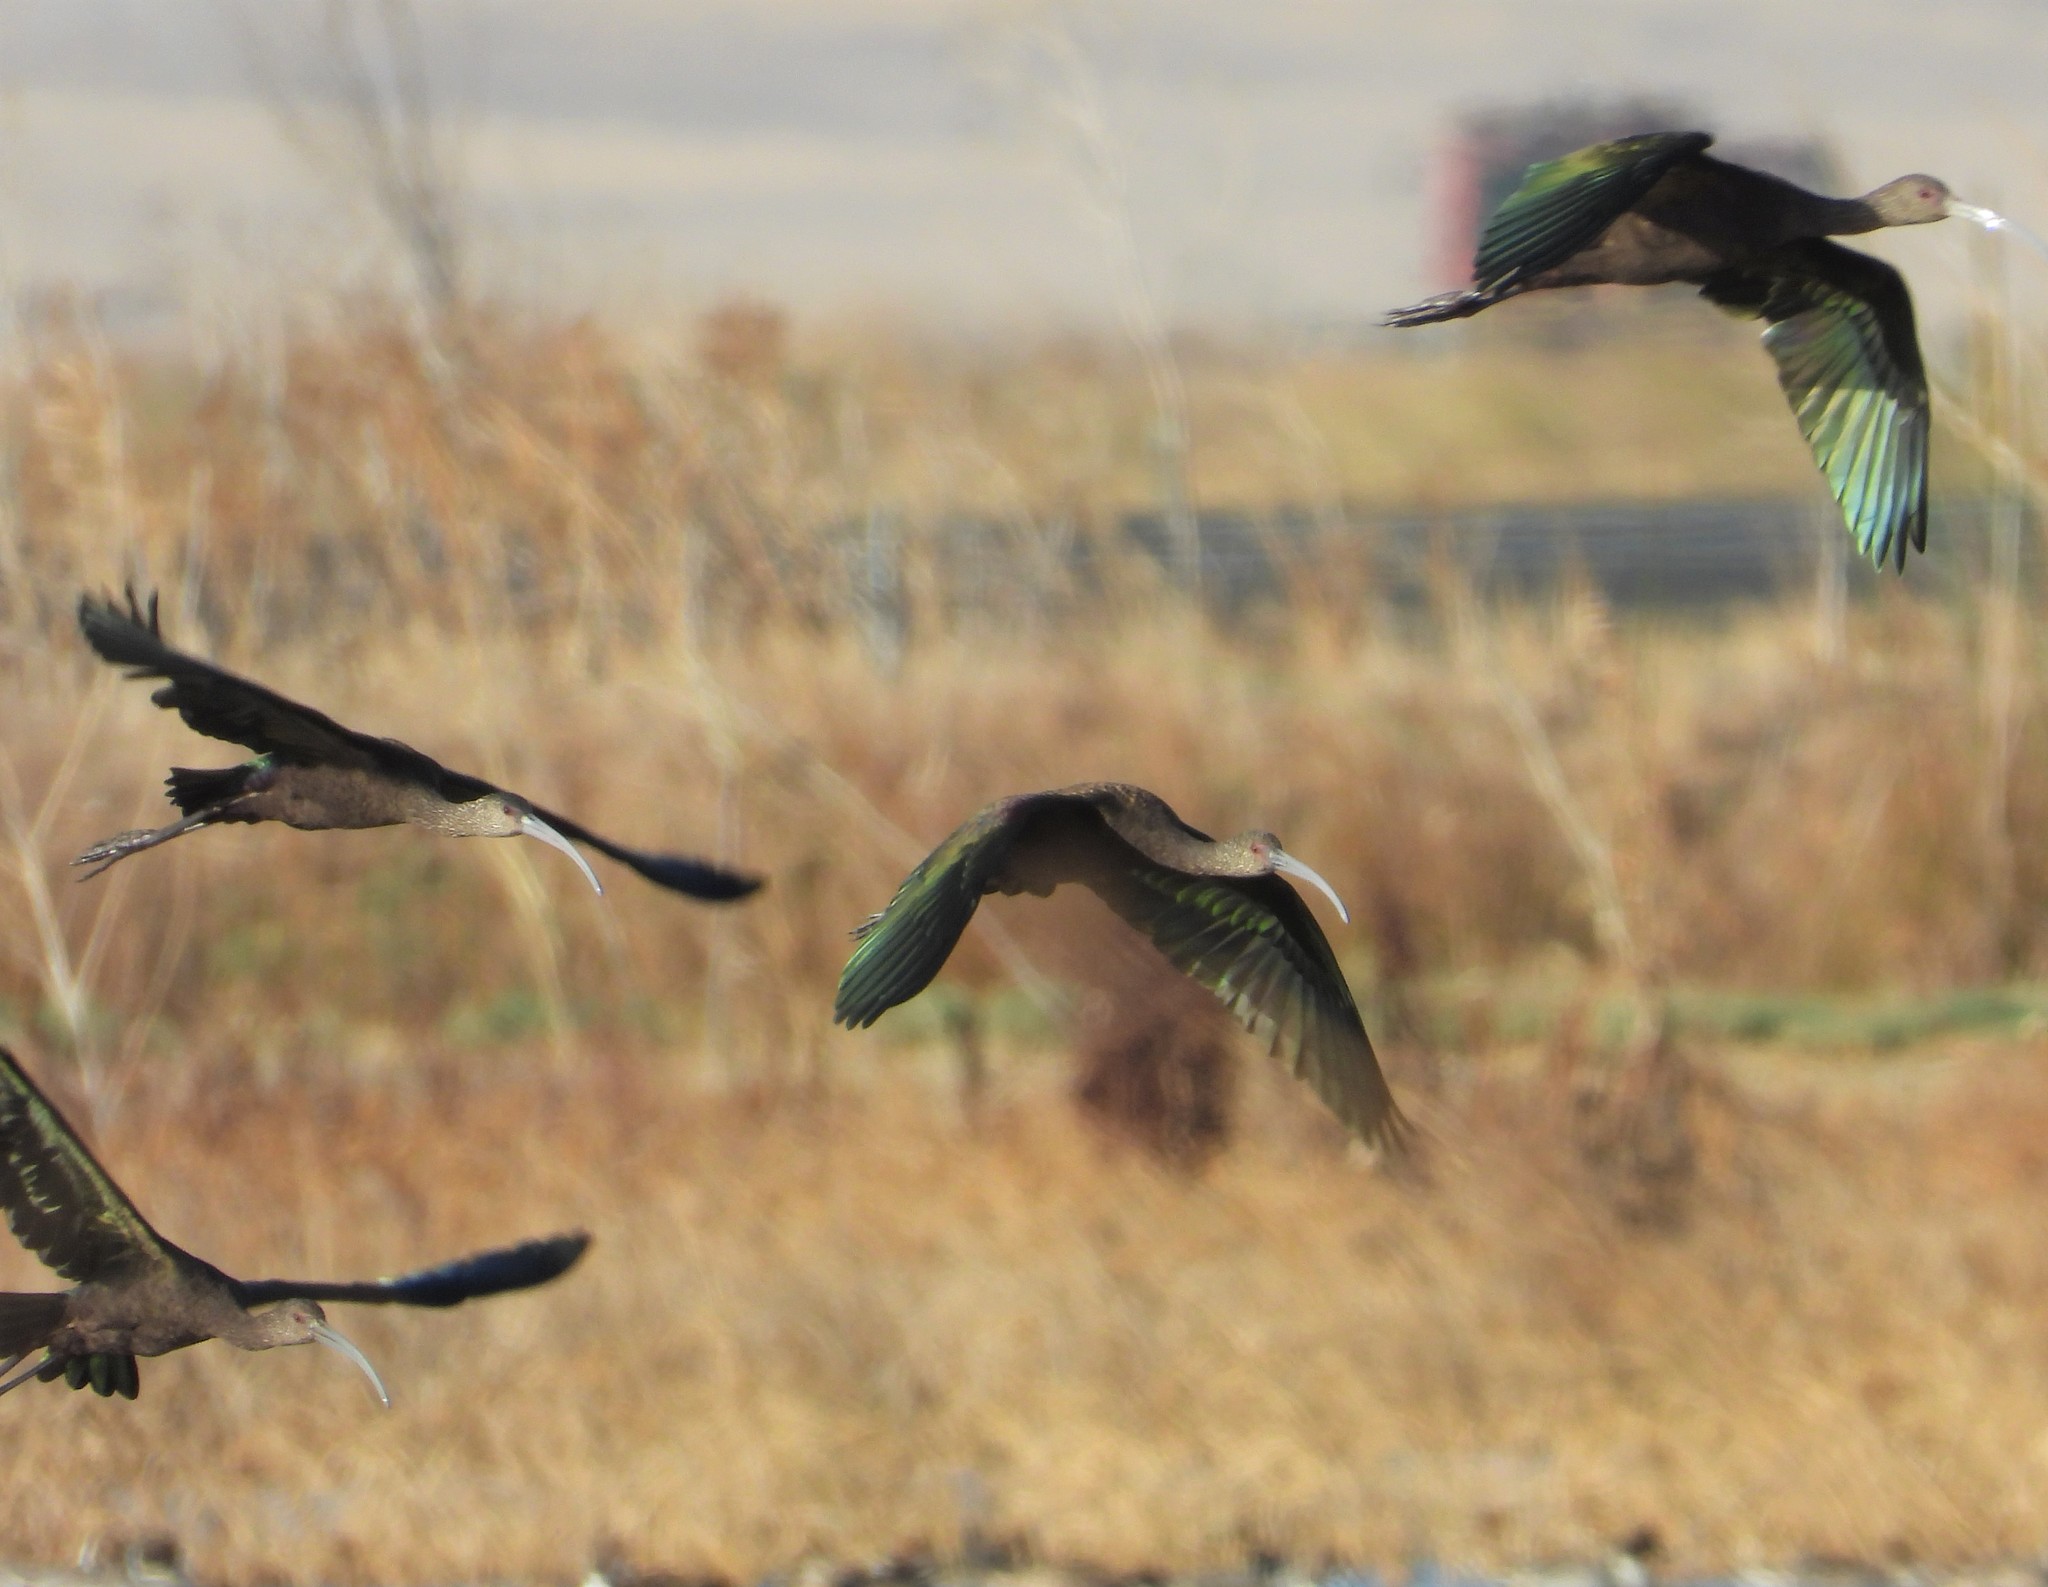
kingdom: Animalia
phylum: Chordata
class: Aves
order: Pelecaniformes
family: Threskiornithidae
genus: Plegadis
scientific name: Plegadis chihi
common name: White-faced ibis
